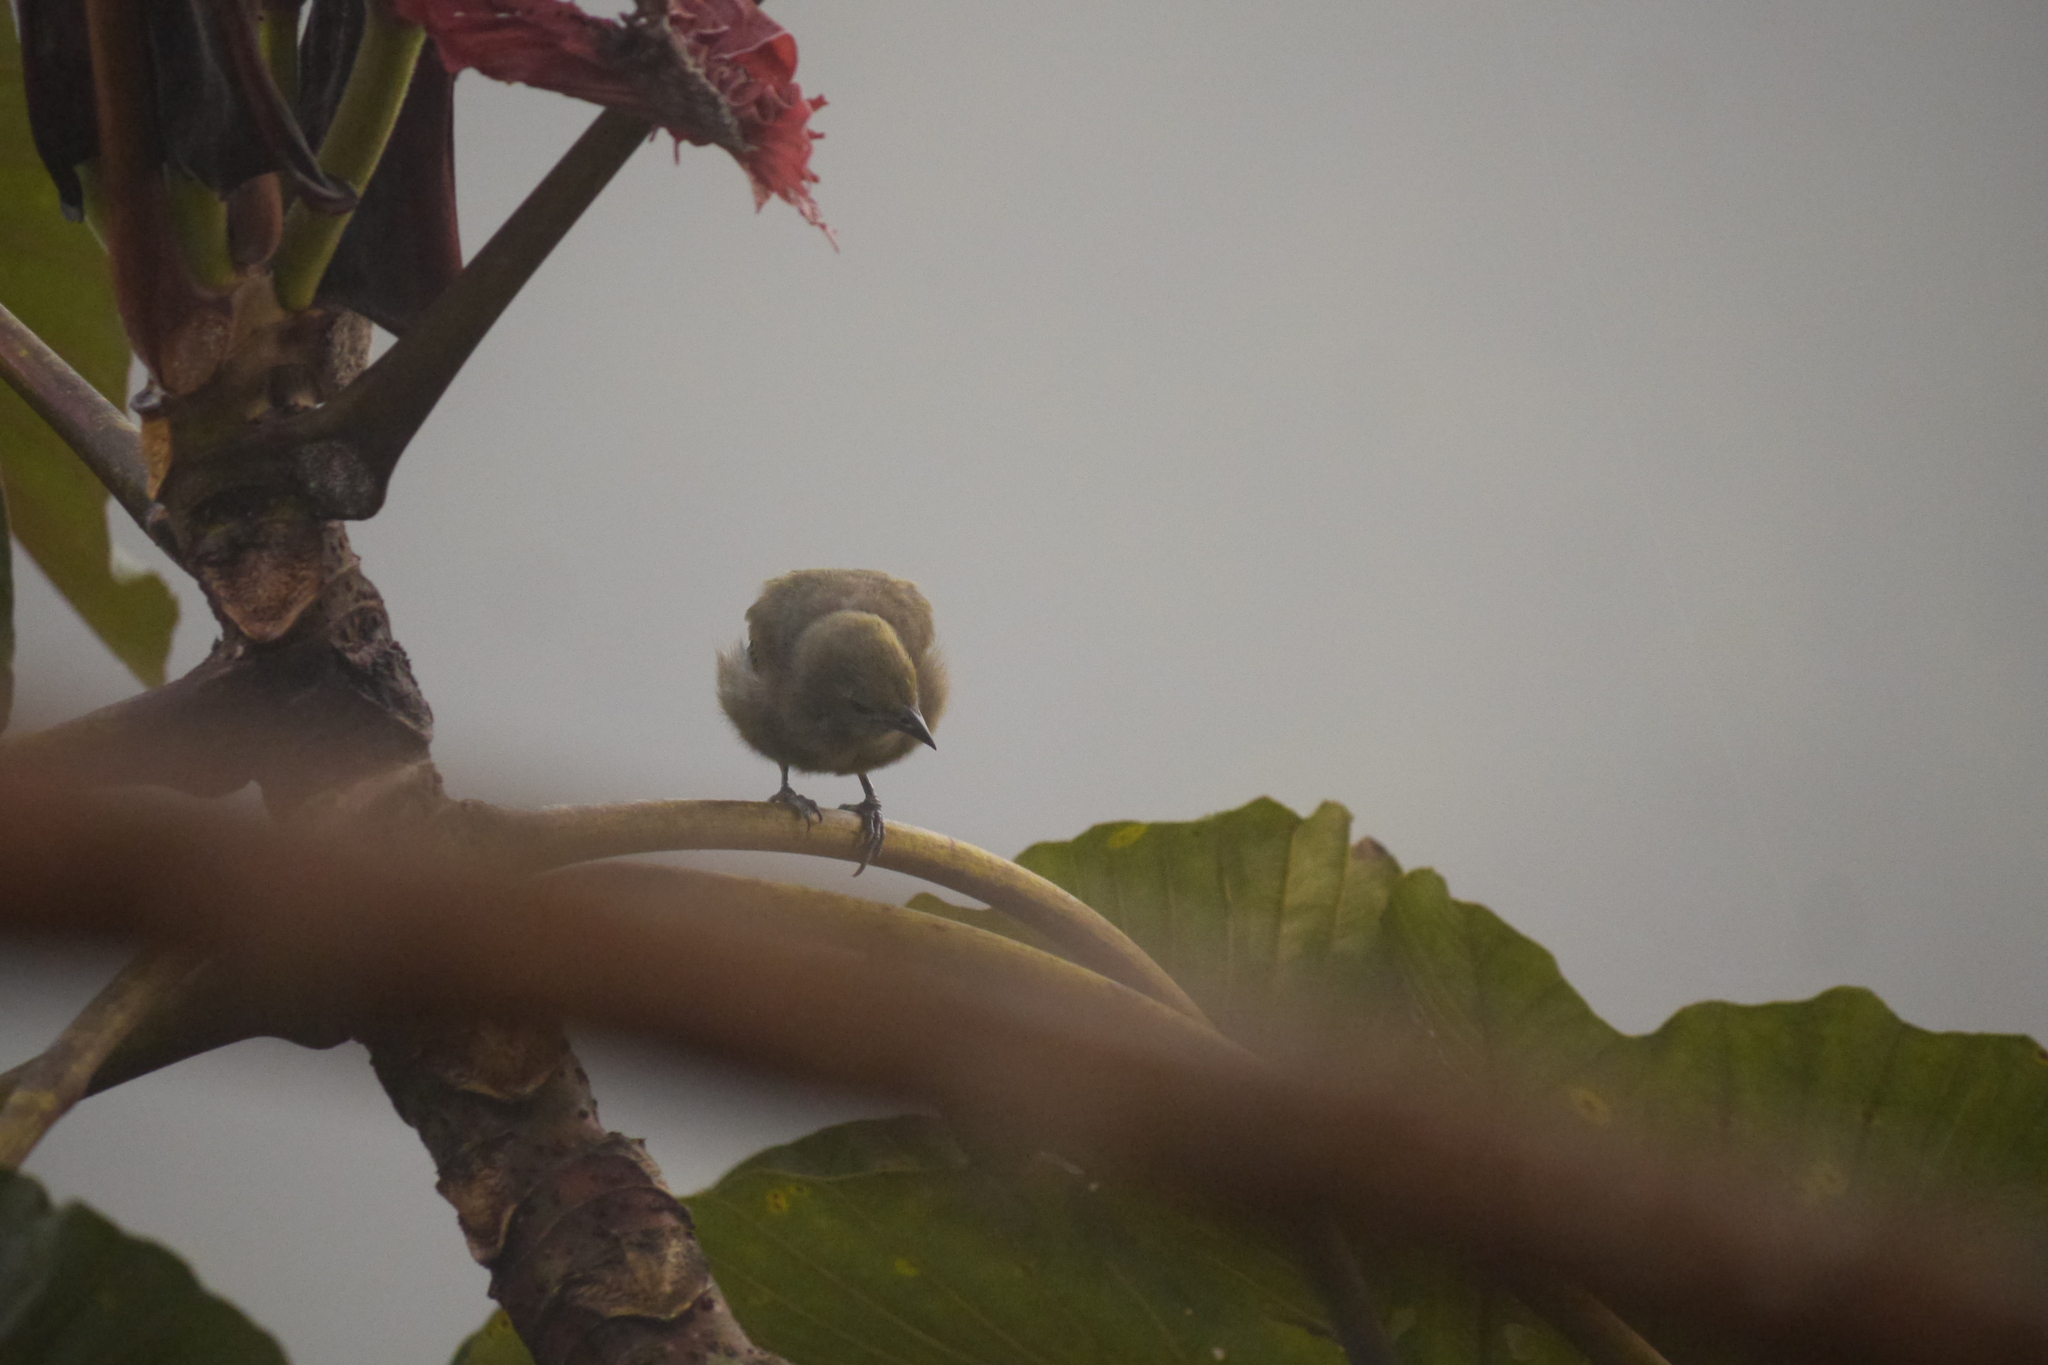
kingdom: Animalia
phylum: Chordata
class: Aves
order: Passeriformes
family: Thraupidae
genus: Thraupis
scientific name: Thraupis palmarum
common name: Palm tanager
